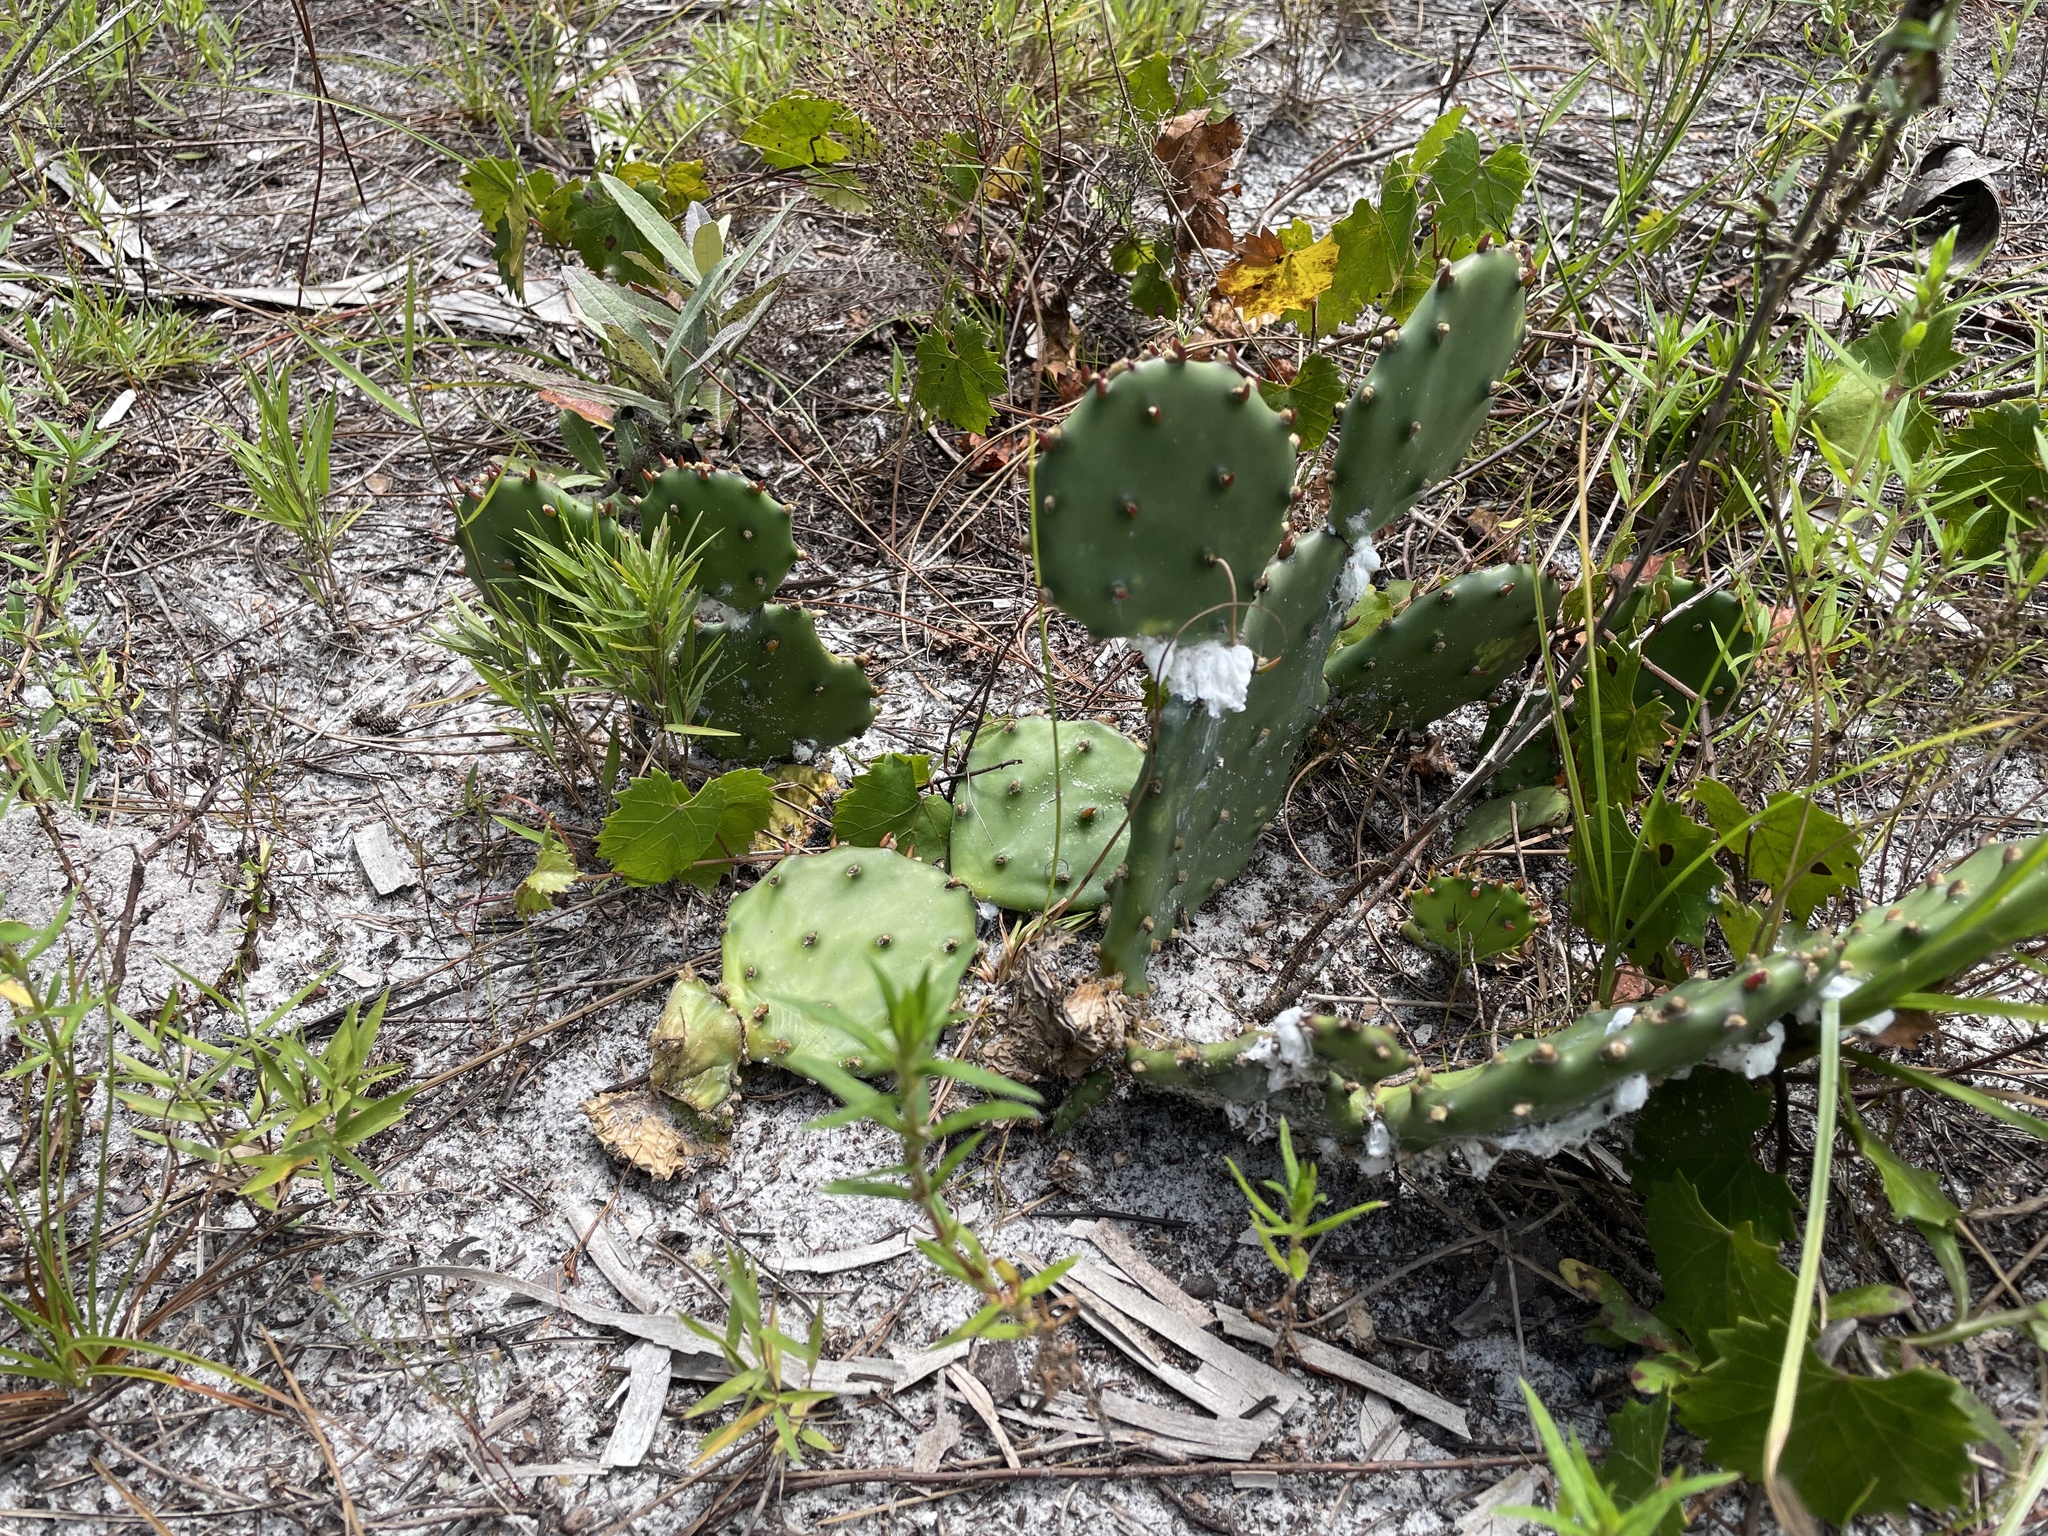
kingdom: Plantae
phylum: Tracheophyta
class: Magnoliopsida
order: Caryophyllales
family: Cactaceae
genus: Opuntia
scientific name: Opuntia austrina
